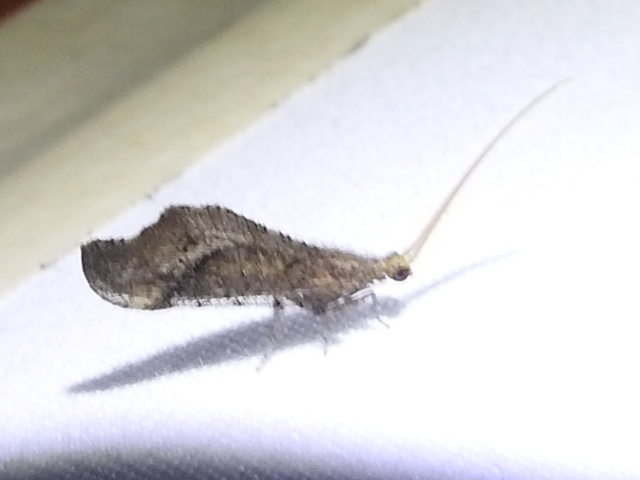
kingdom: Animalia
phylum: Arthropoda
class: Insecta
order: Neuroptera
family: Berothidae
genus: Lomamyia
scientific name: Lomamyia
